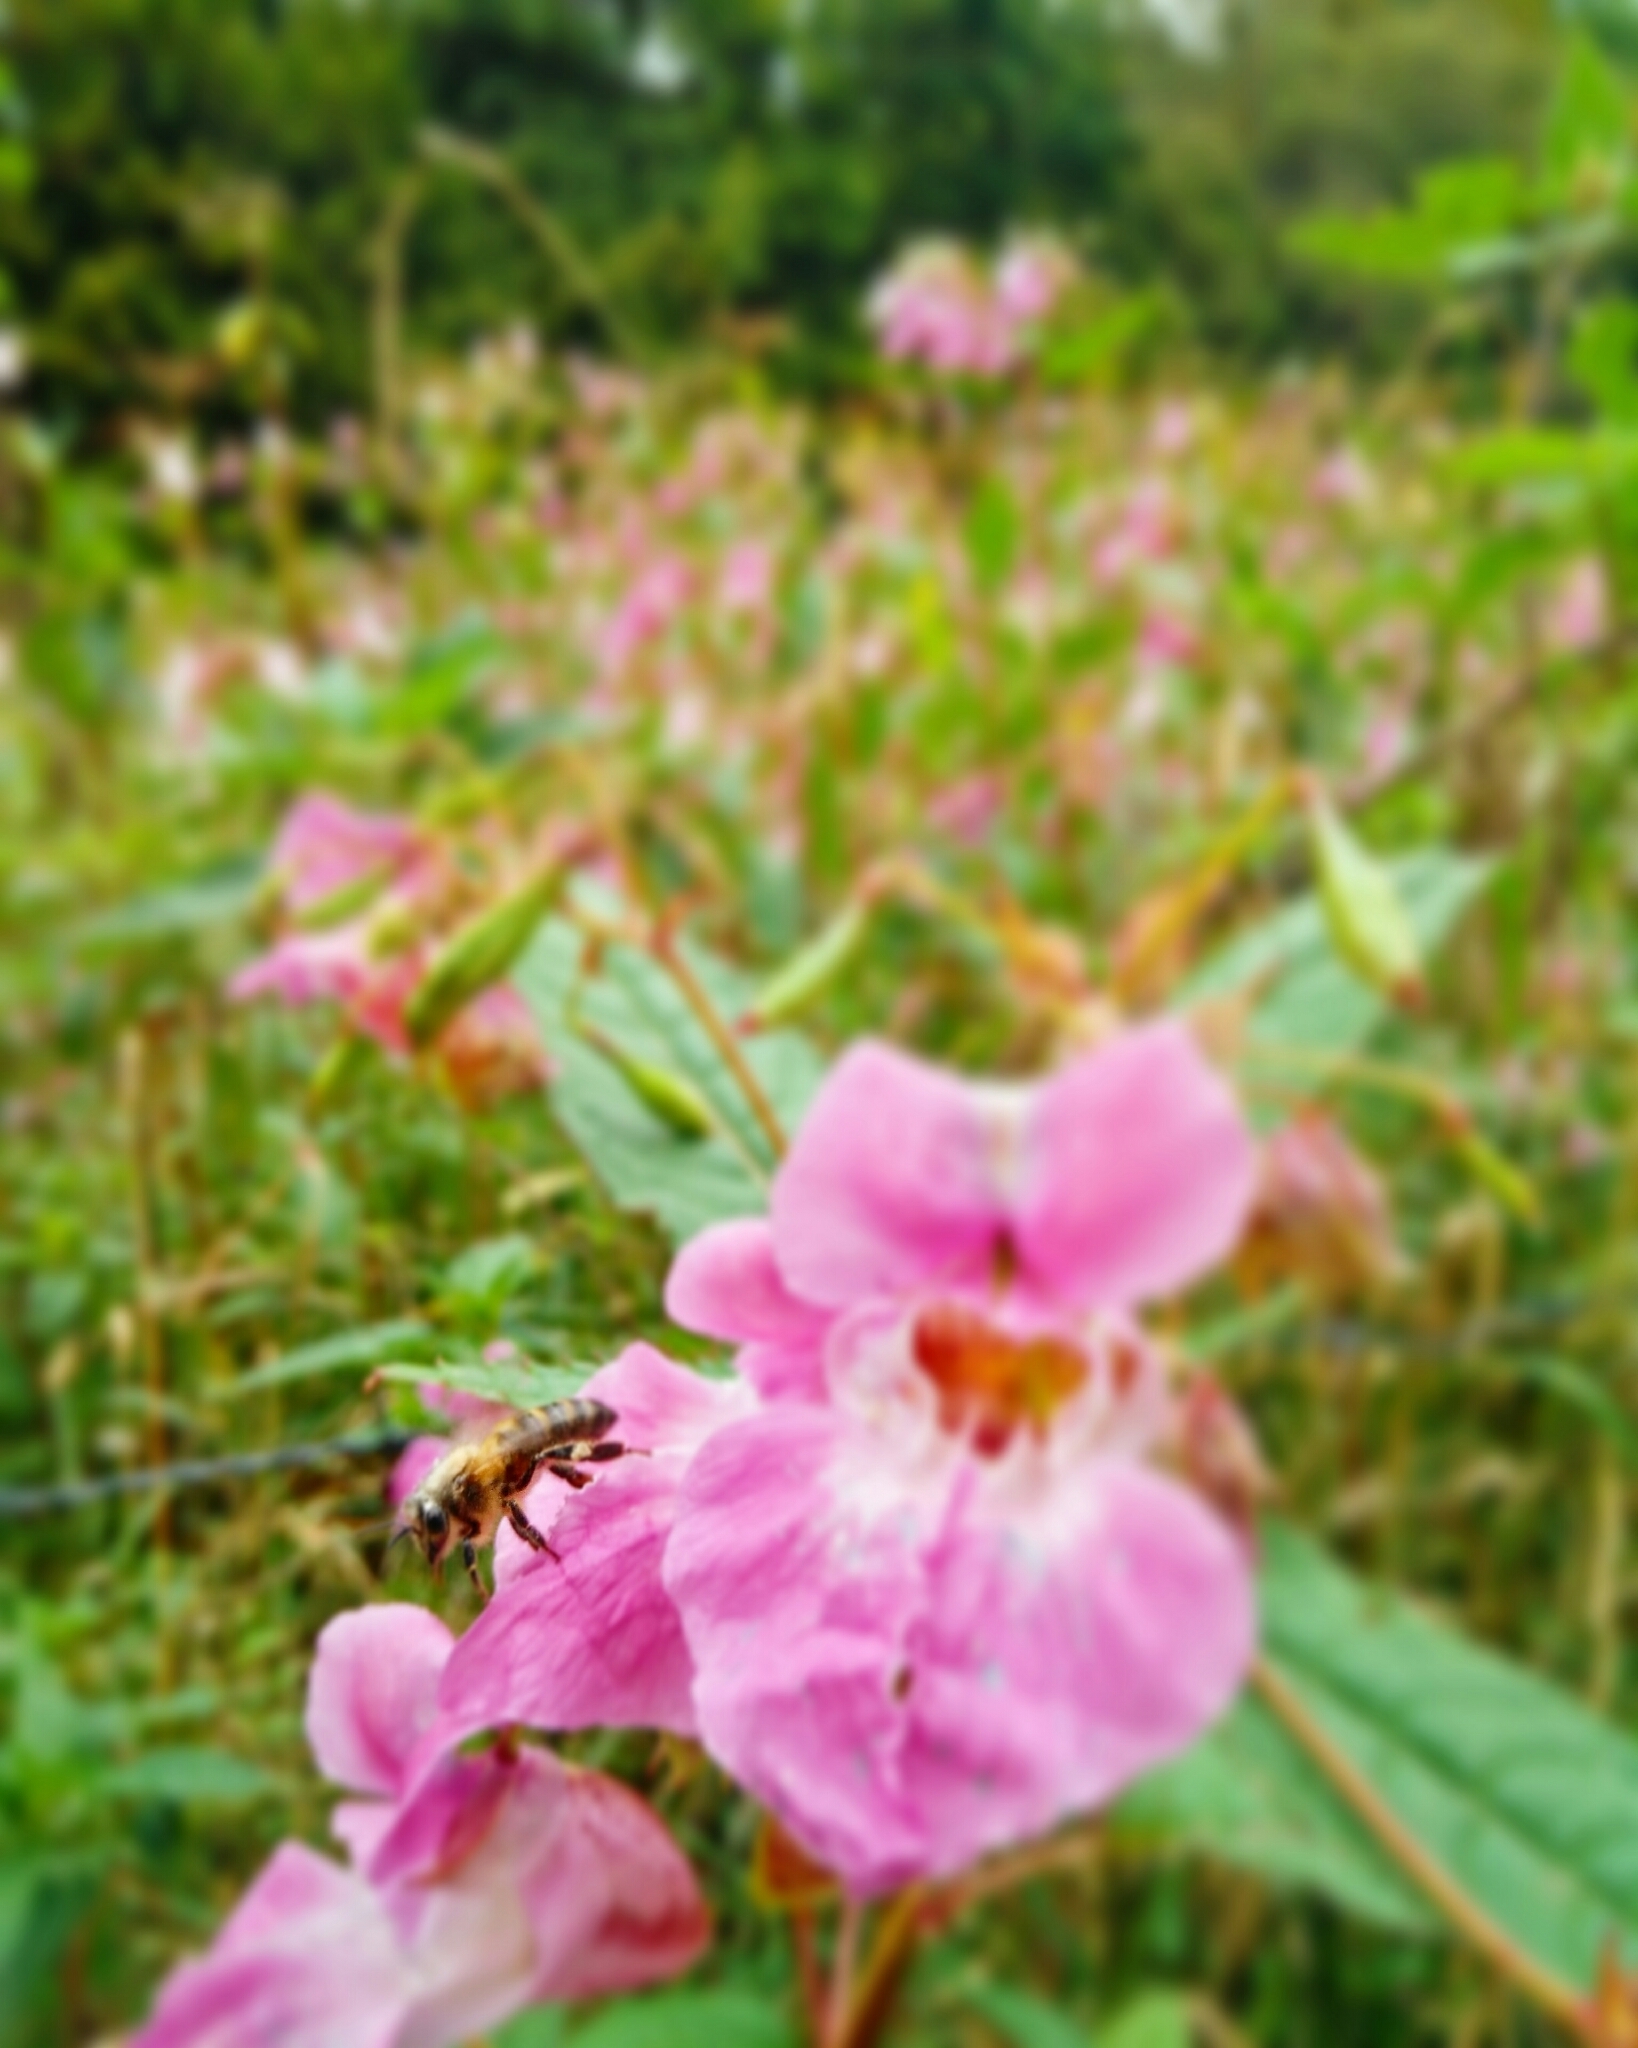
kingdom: Plantae
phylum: Tracheophyta
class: Magnoliopsida
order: Ericales
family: Balsaminaceae
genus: Impatiens
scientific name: Impatiens glandulifera
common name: Himalayan balsam
